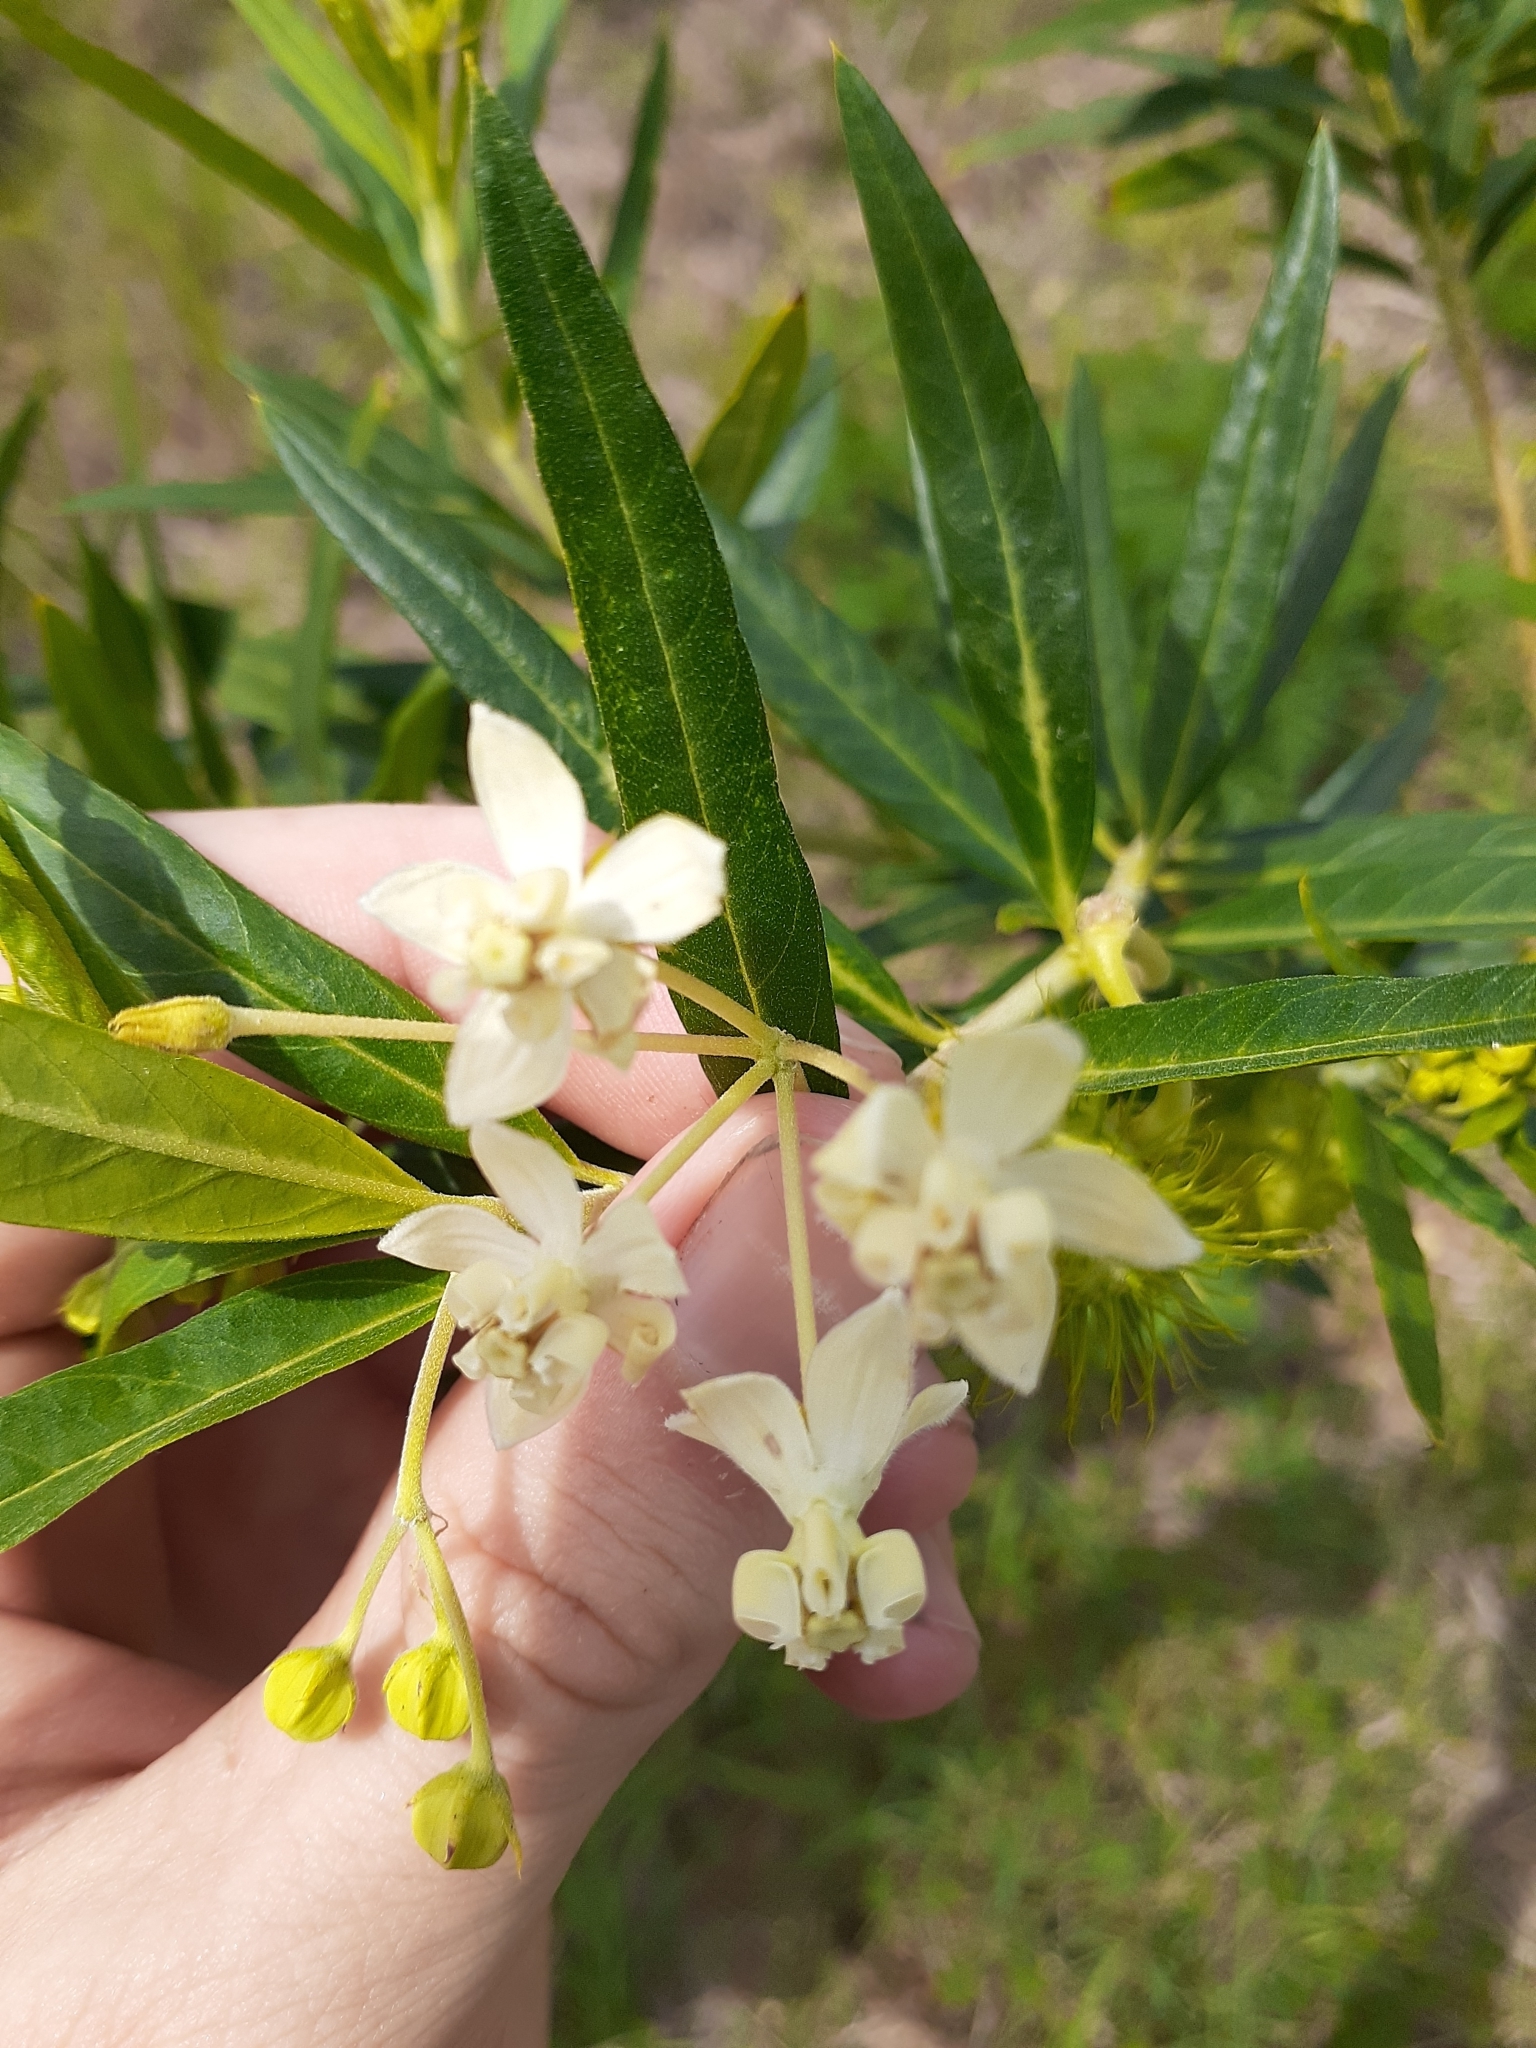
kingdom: Plantae
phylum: Tracheophyta
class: Magnoliopsida
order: Gentianales
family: Apocynaceae
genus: Gomphocarpus
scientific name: Gomphocarpus physocarpus
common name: Balloon cotton bush
